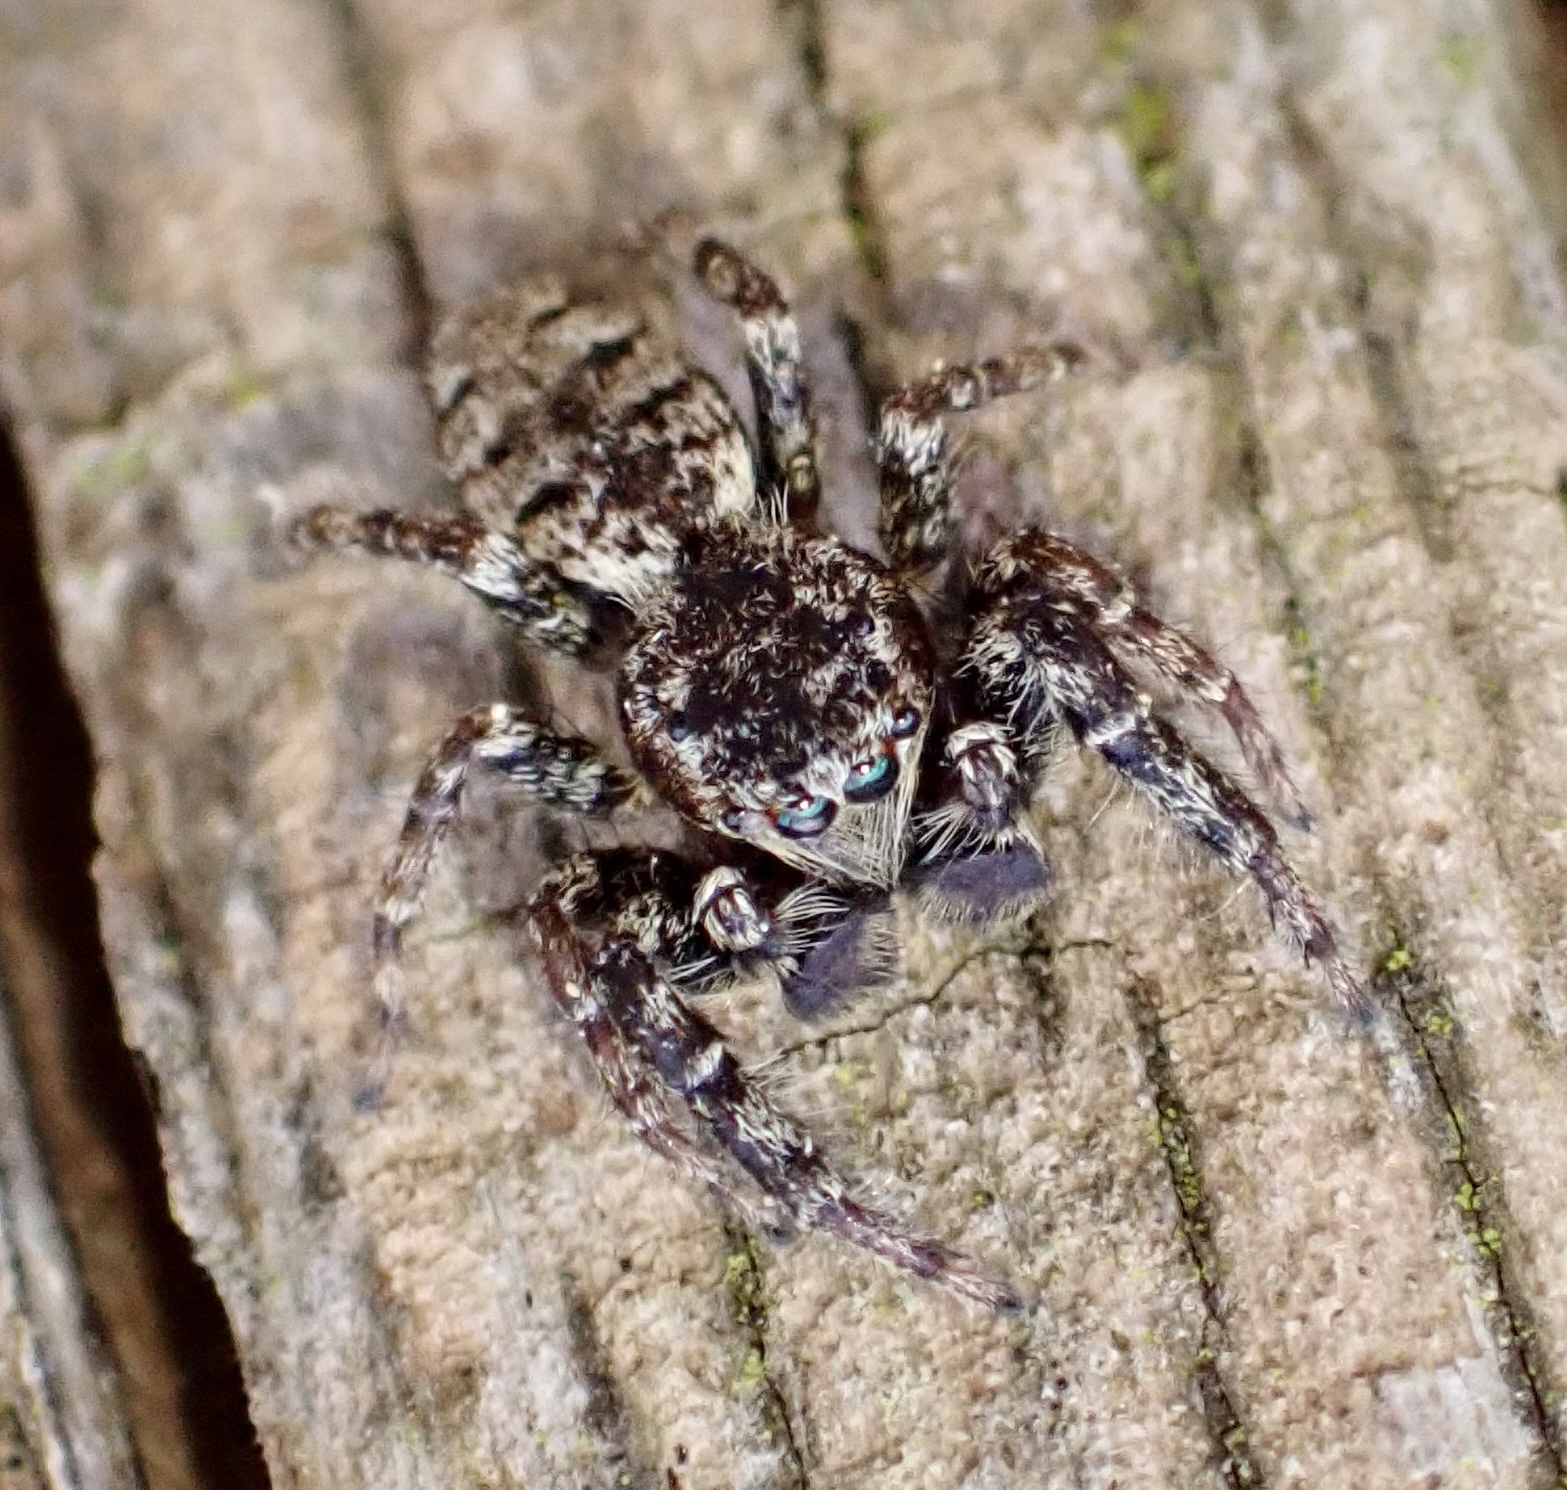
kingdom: Animalia
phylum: Arthropoda
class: Arachnida
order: Araneae
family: Salticidae
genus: Marpissa
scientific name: Marpissa muscosa
